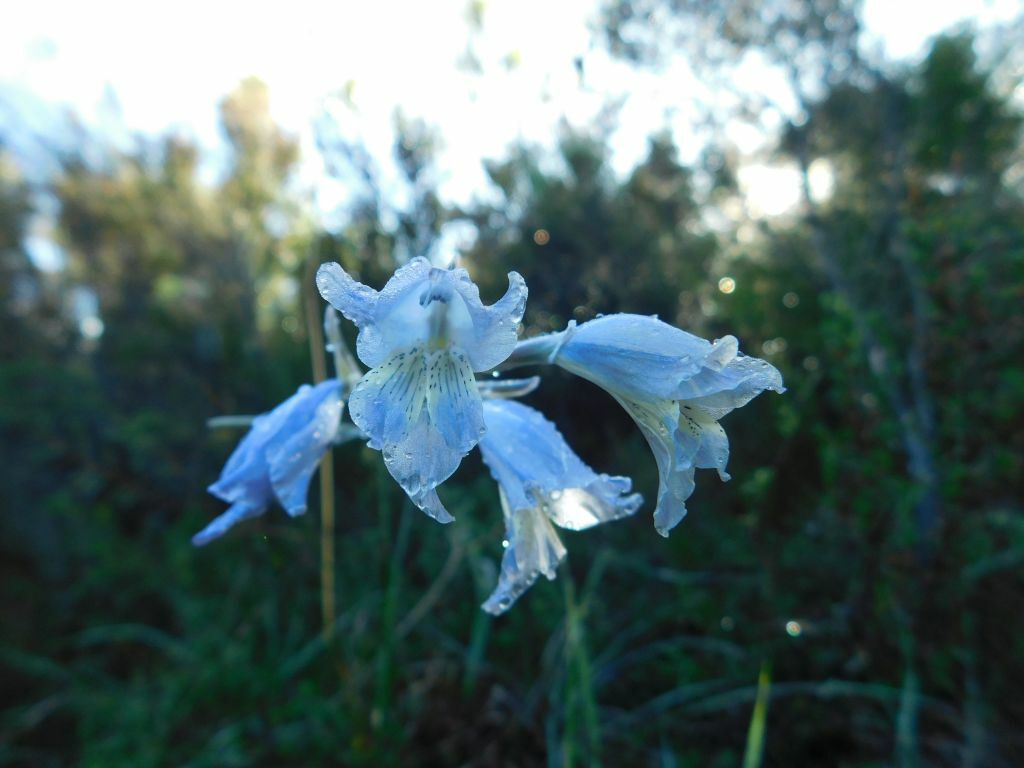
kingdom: Plantae
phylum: Tracheophyta
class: Liliopsida
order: Asparagales
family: Iridaceae
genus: Gladiolus
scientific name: Gladiolus gracilis
